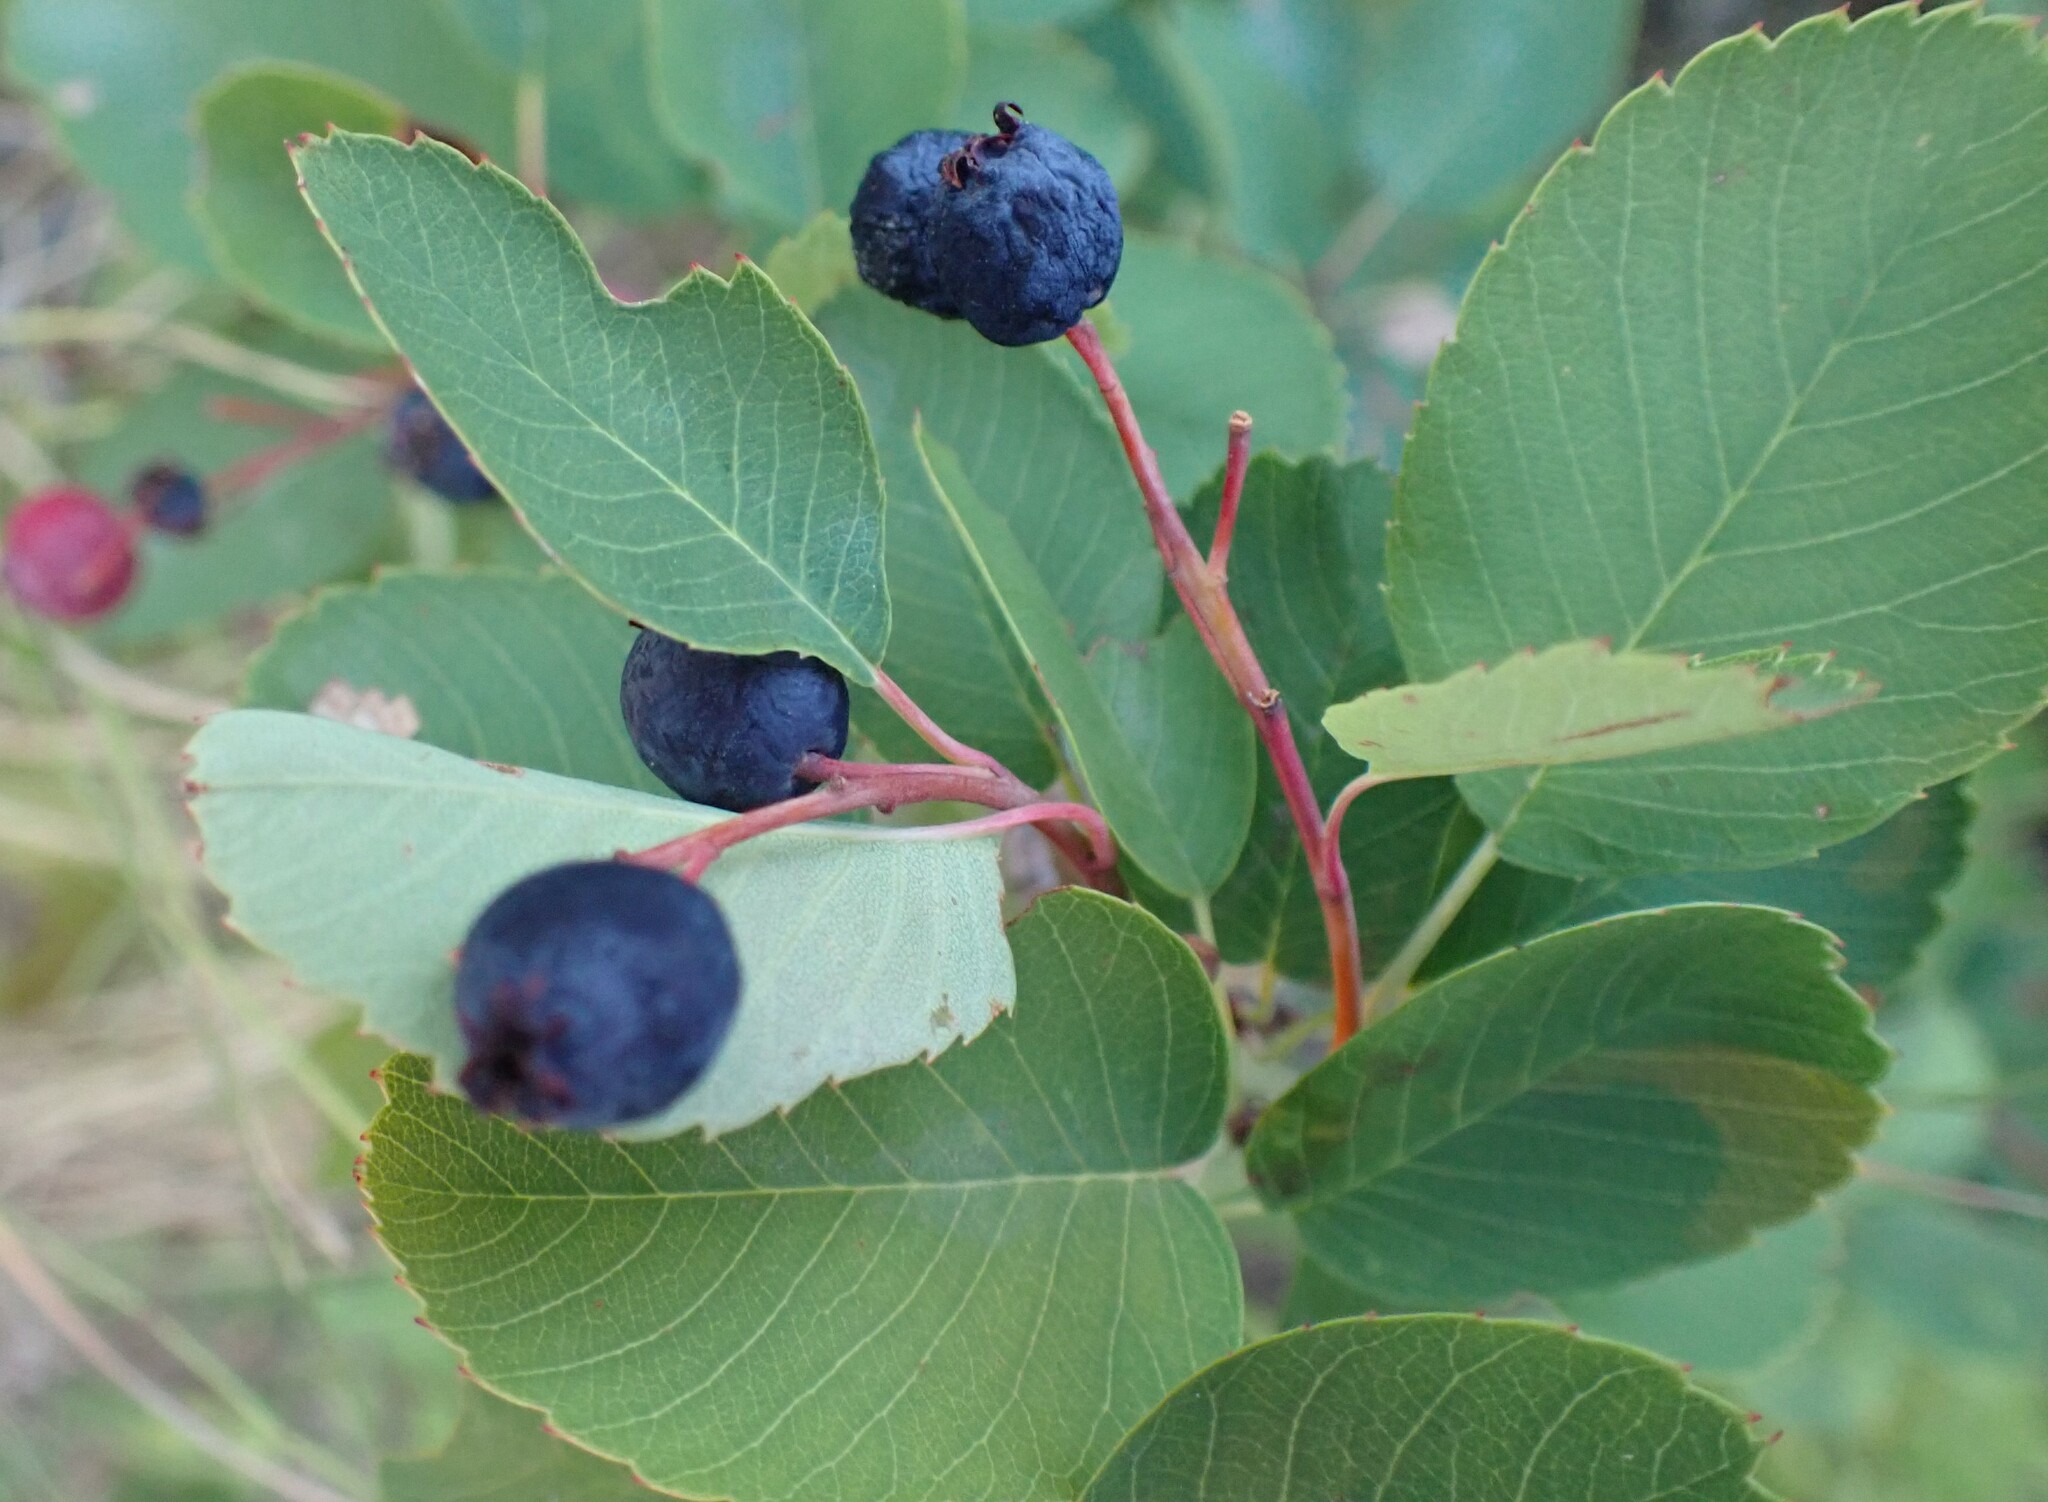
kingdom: Plantae
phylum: Tracheophyta
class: Magnoliopsida
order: Rosales
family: Rosaceae
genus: Amelanchier
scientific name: Amelanchier alnifolia
